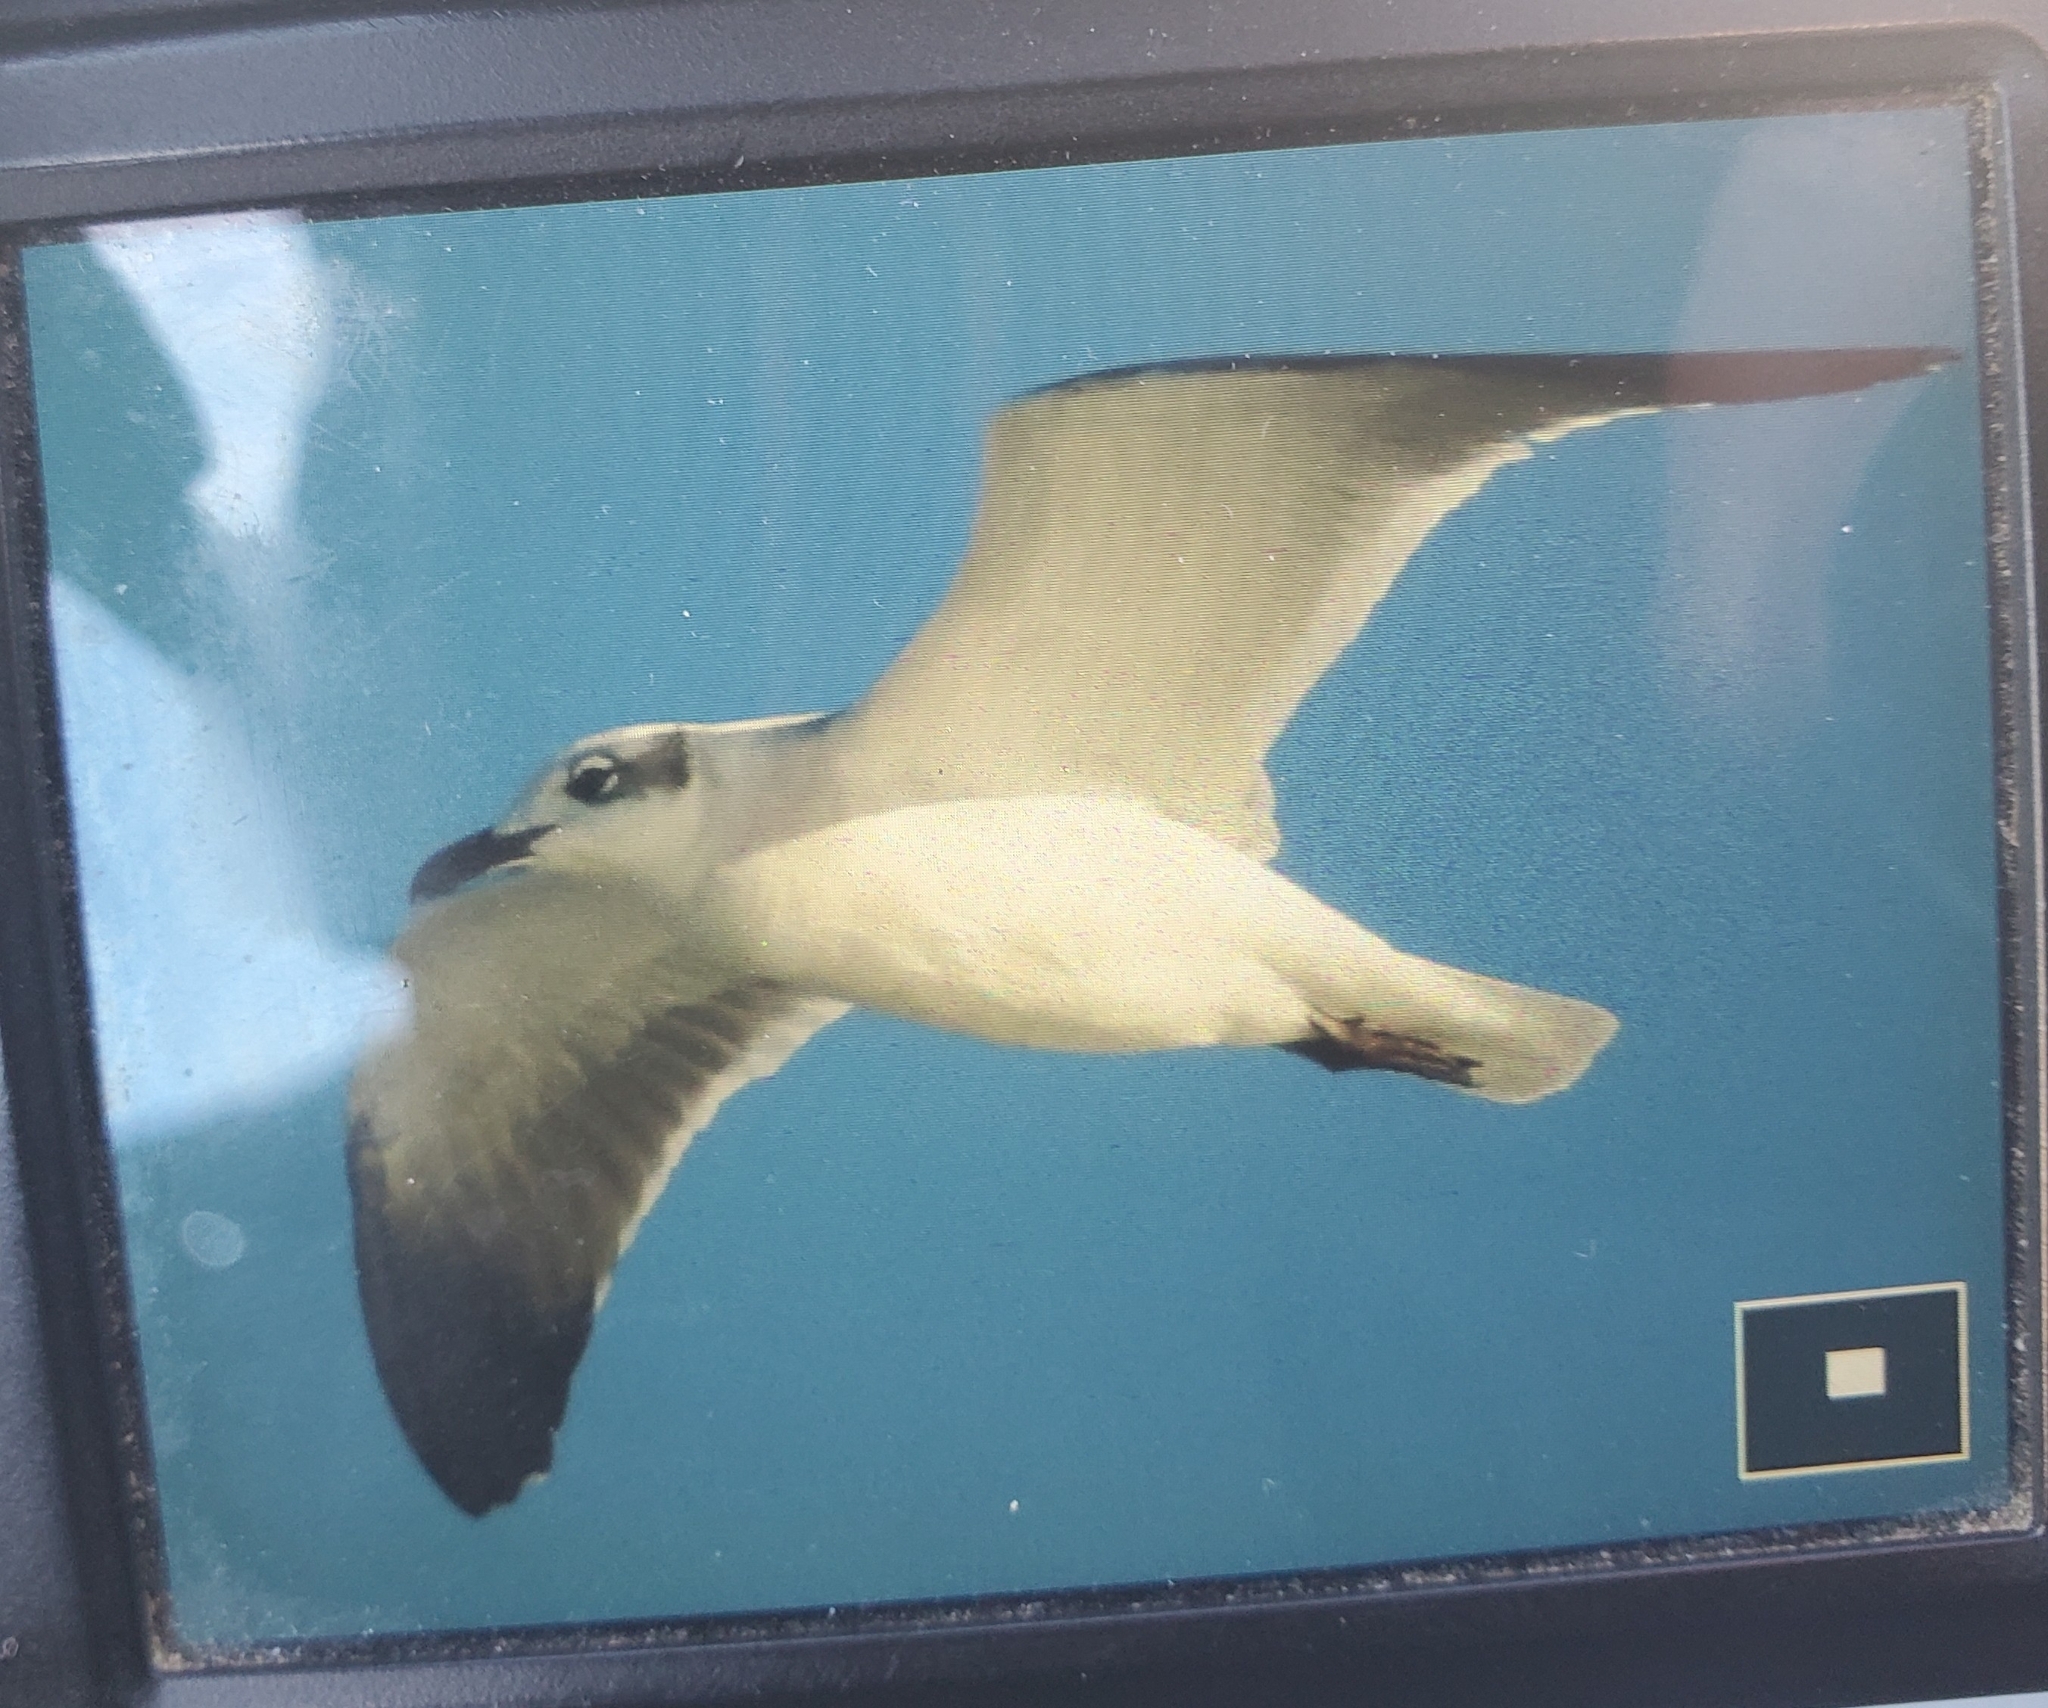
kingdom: Animalia
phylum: Chordata
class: Aves
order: Charadriiformes
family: Laridae
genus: Leucophaeus
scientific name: Leucophaeus atricilla
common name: Laughing gull
